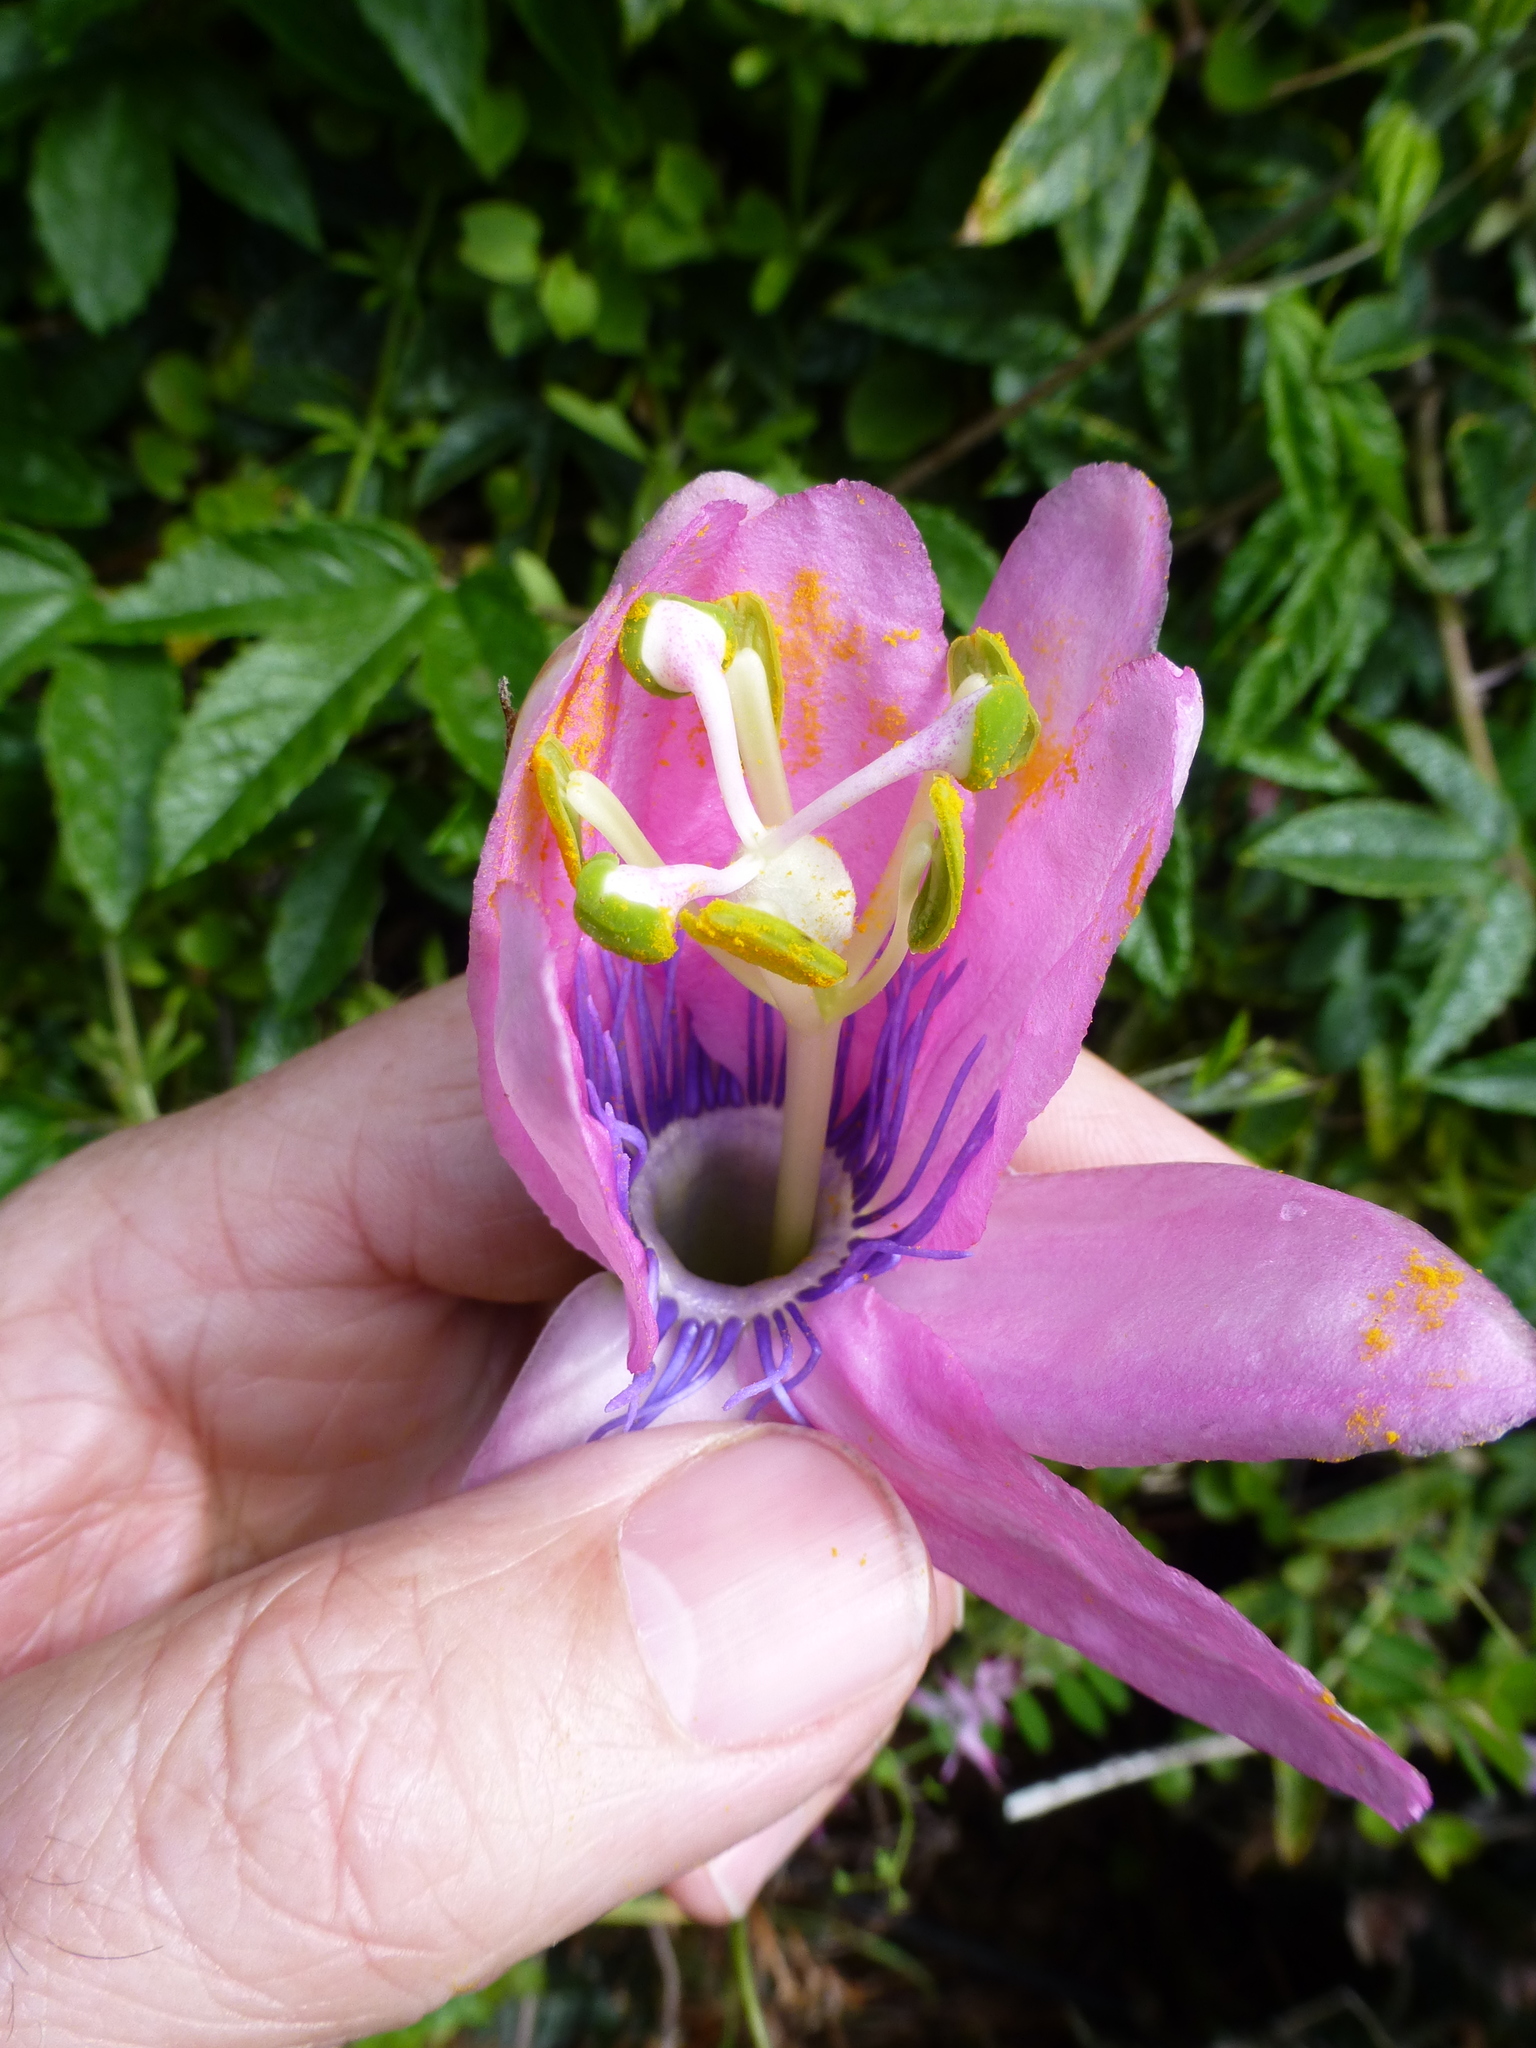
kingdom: Plantae
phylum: Tracheophyta
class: Magnoliopsida
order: Malpighiales
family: Passifloraceae
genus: Passiflora
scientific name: Passiflora pinnatistipula
